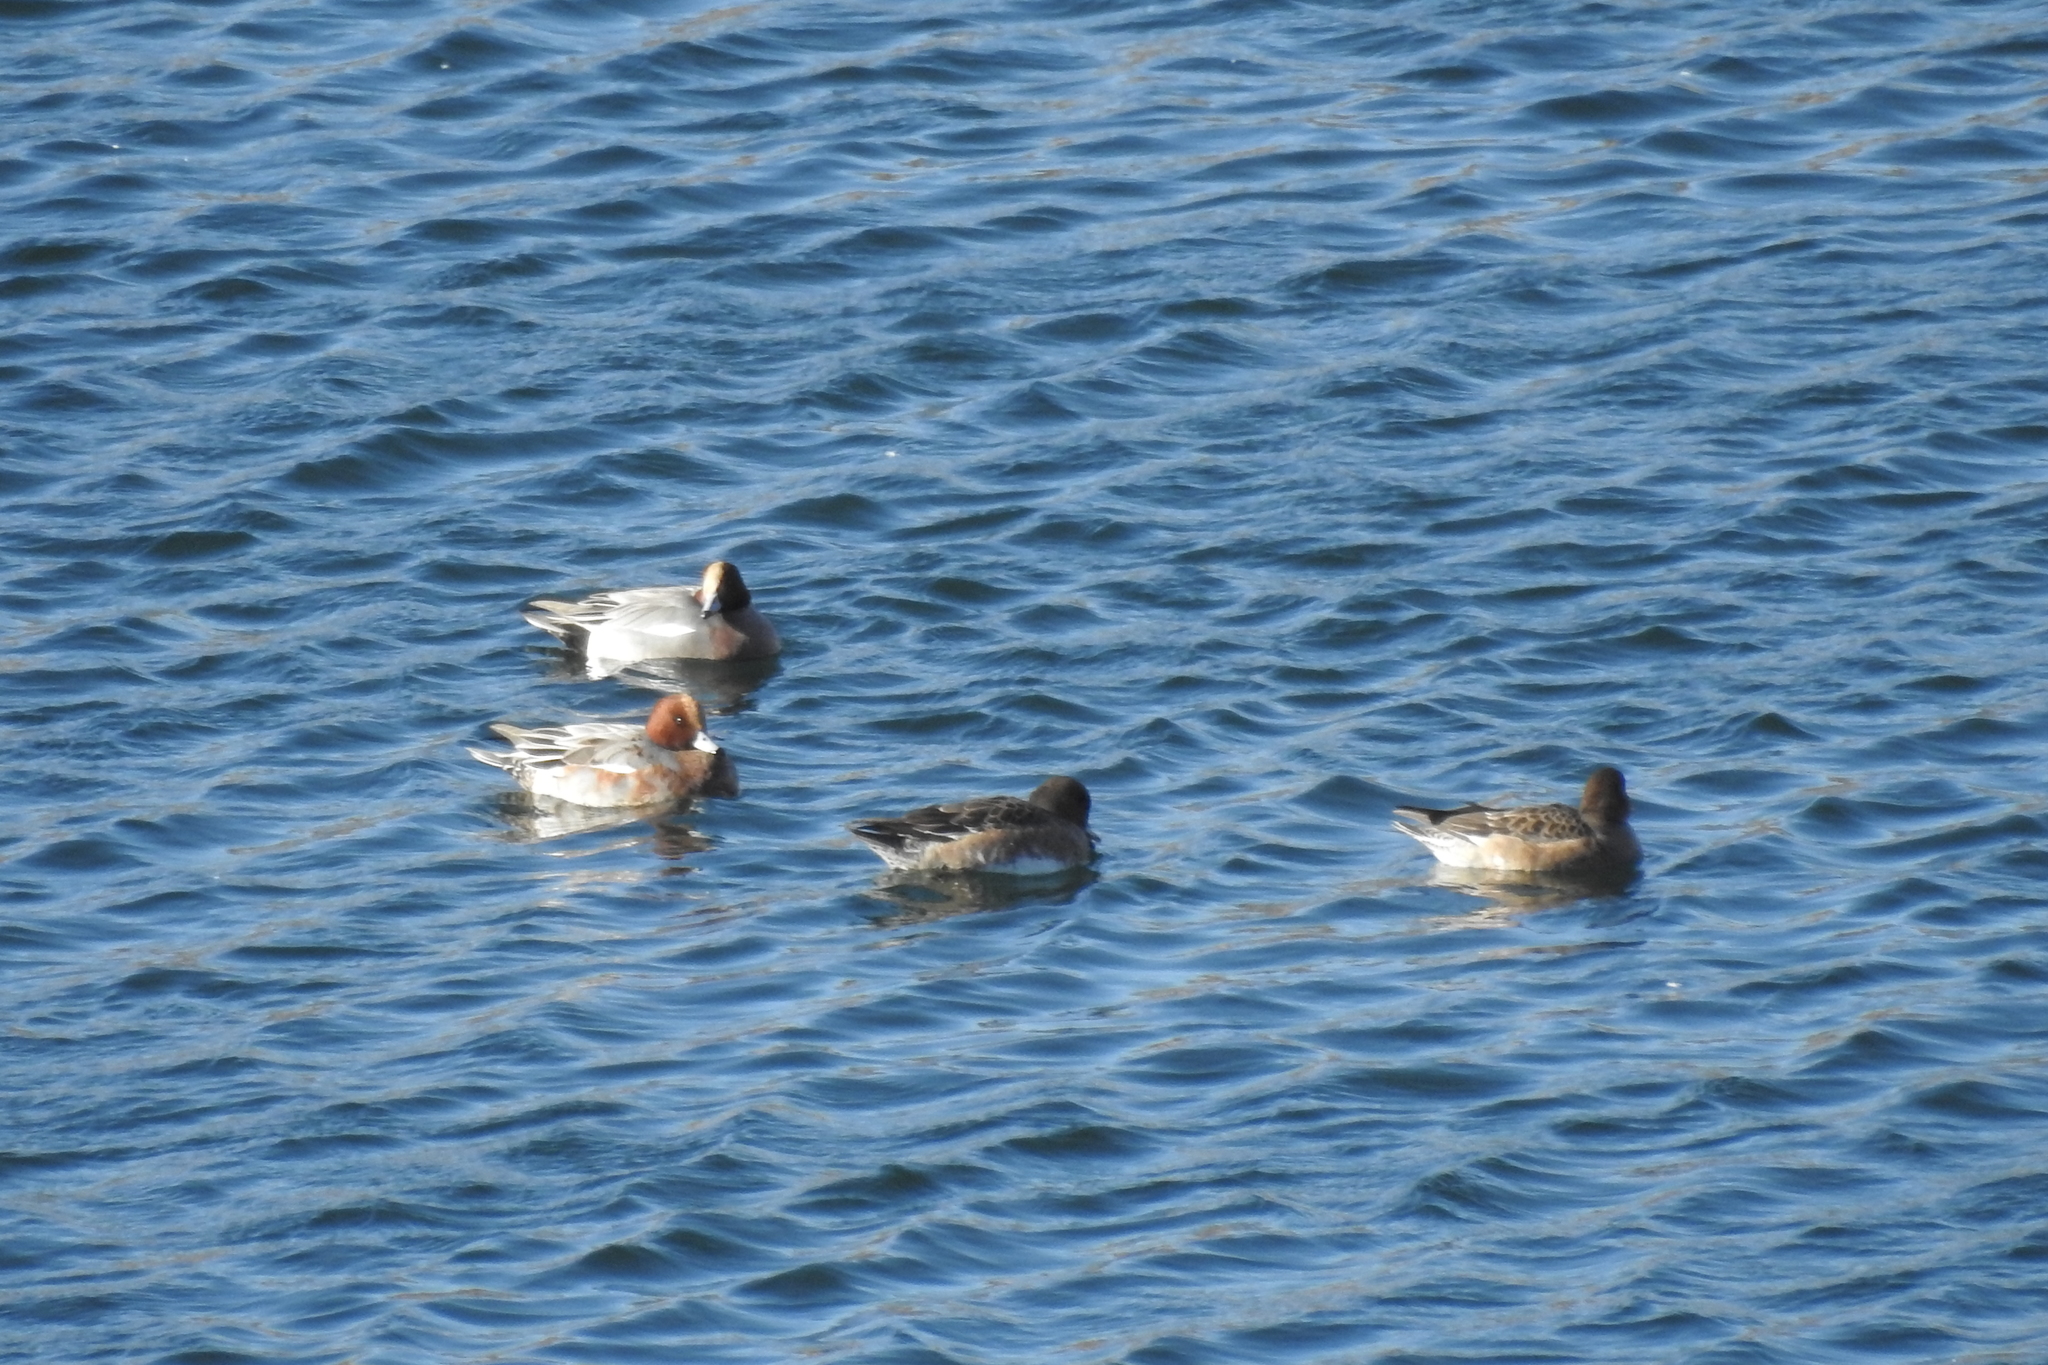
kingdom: Animalia
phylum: Chordata
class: Aves
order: Anseriformes
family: Anatidae
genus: Mareca
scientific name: Mareca penelope
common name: Eurasian wigeon
